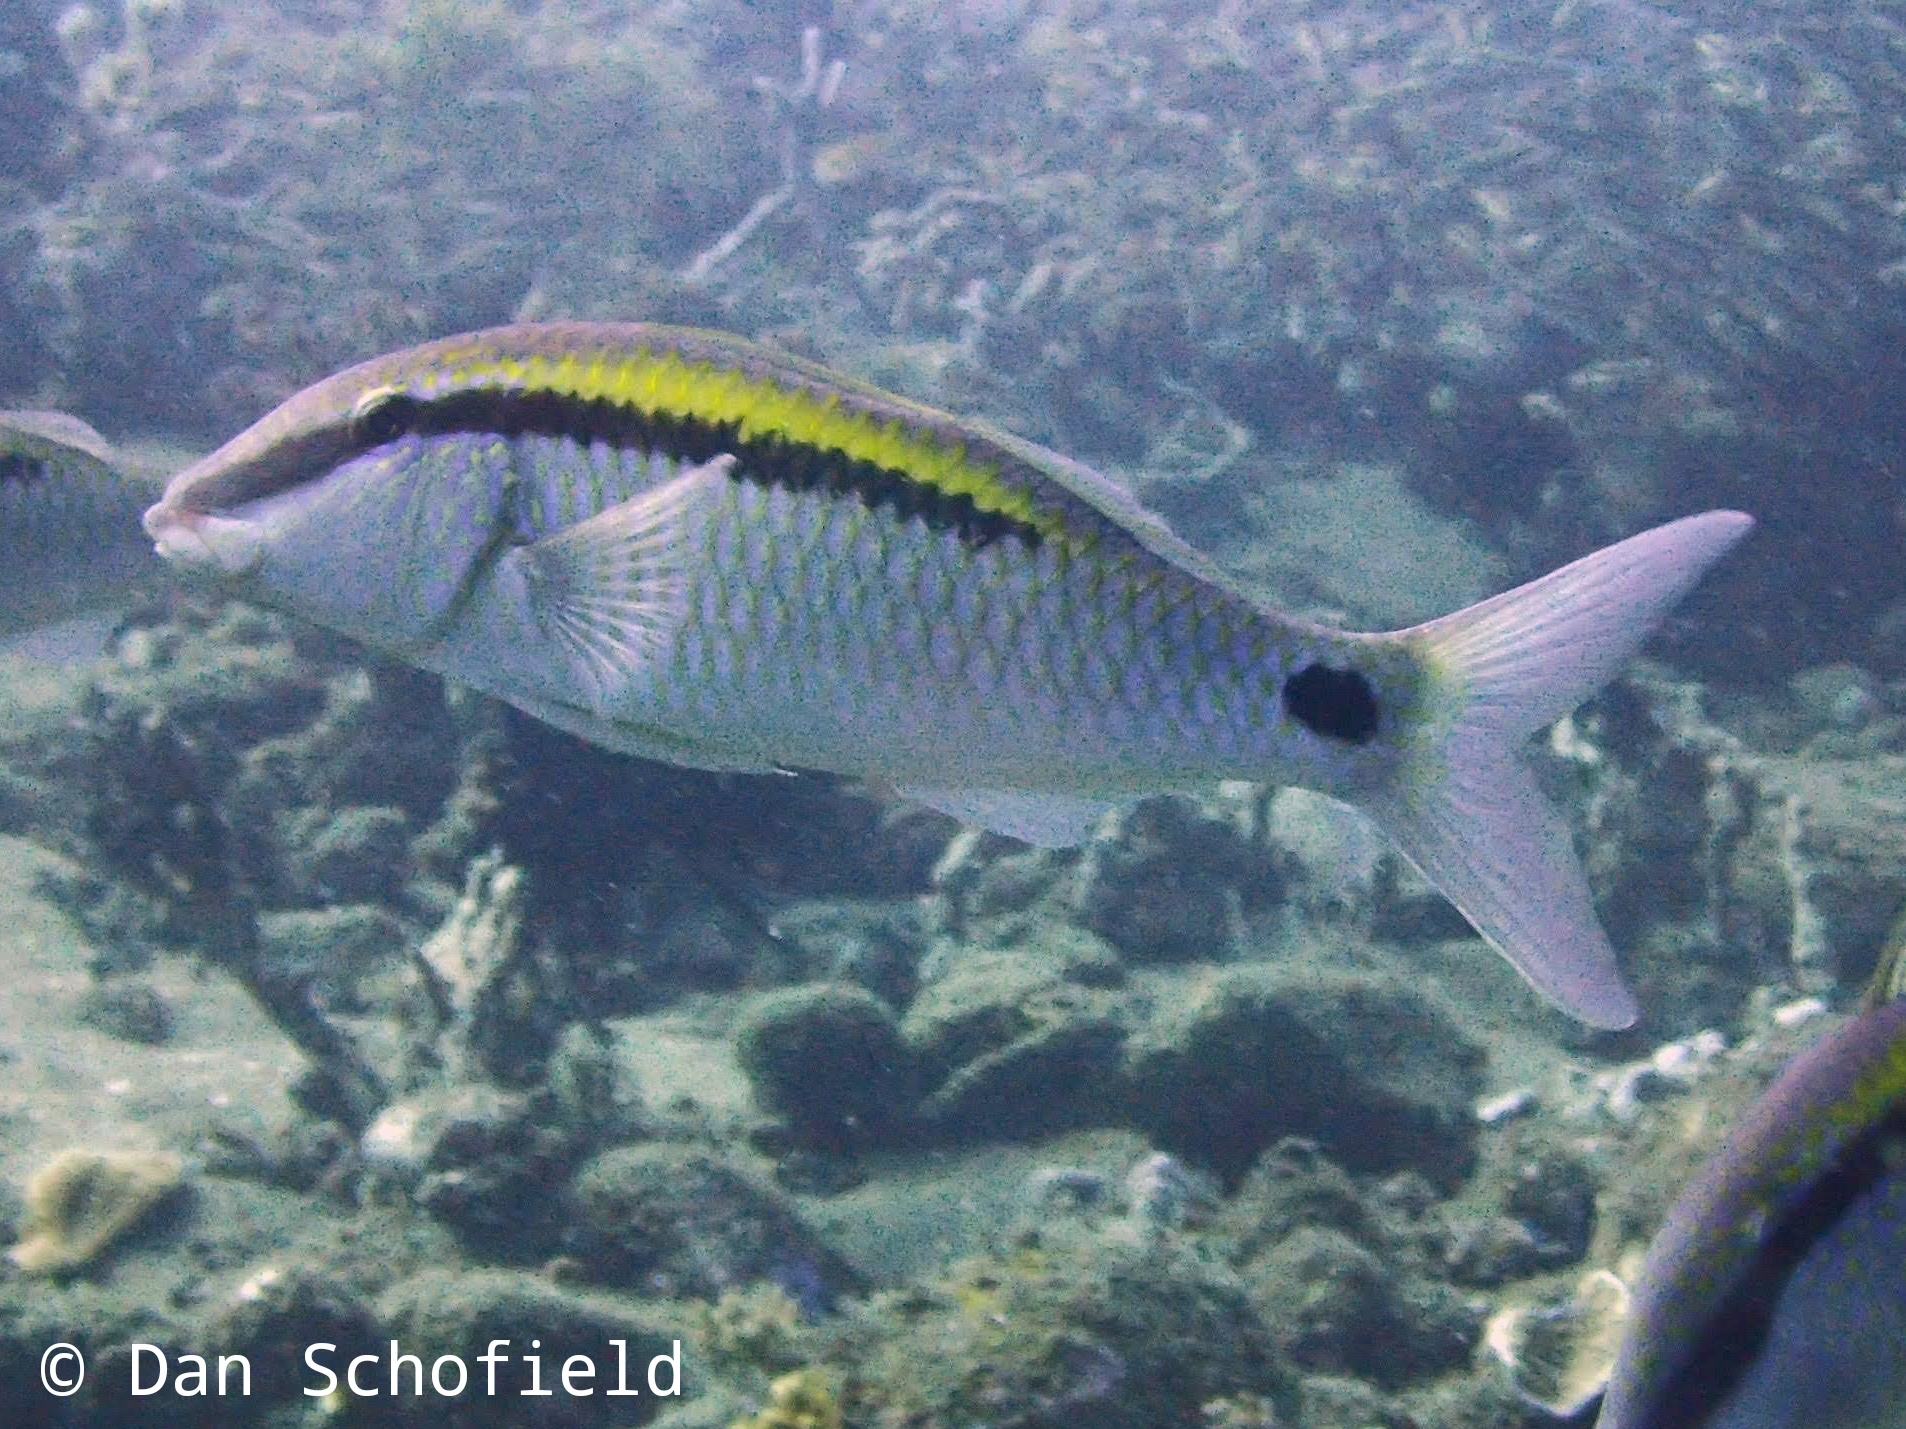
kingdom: Animalia
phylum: Chordata
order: Perciformes
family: Mullidae
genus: Parupeneus
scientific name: Parupeneus barberinus
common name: Dash-and-dot goatfish
